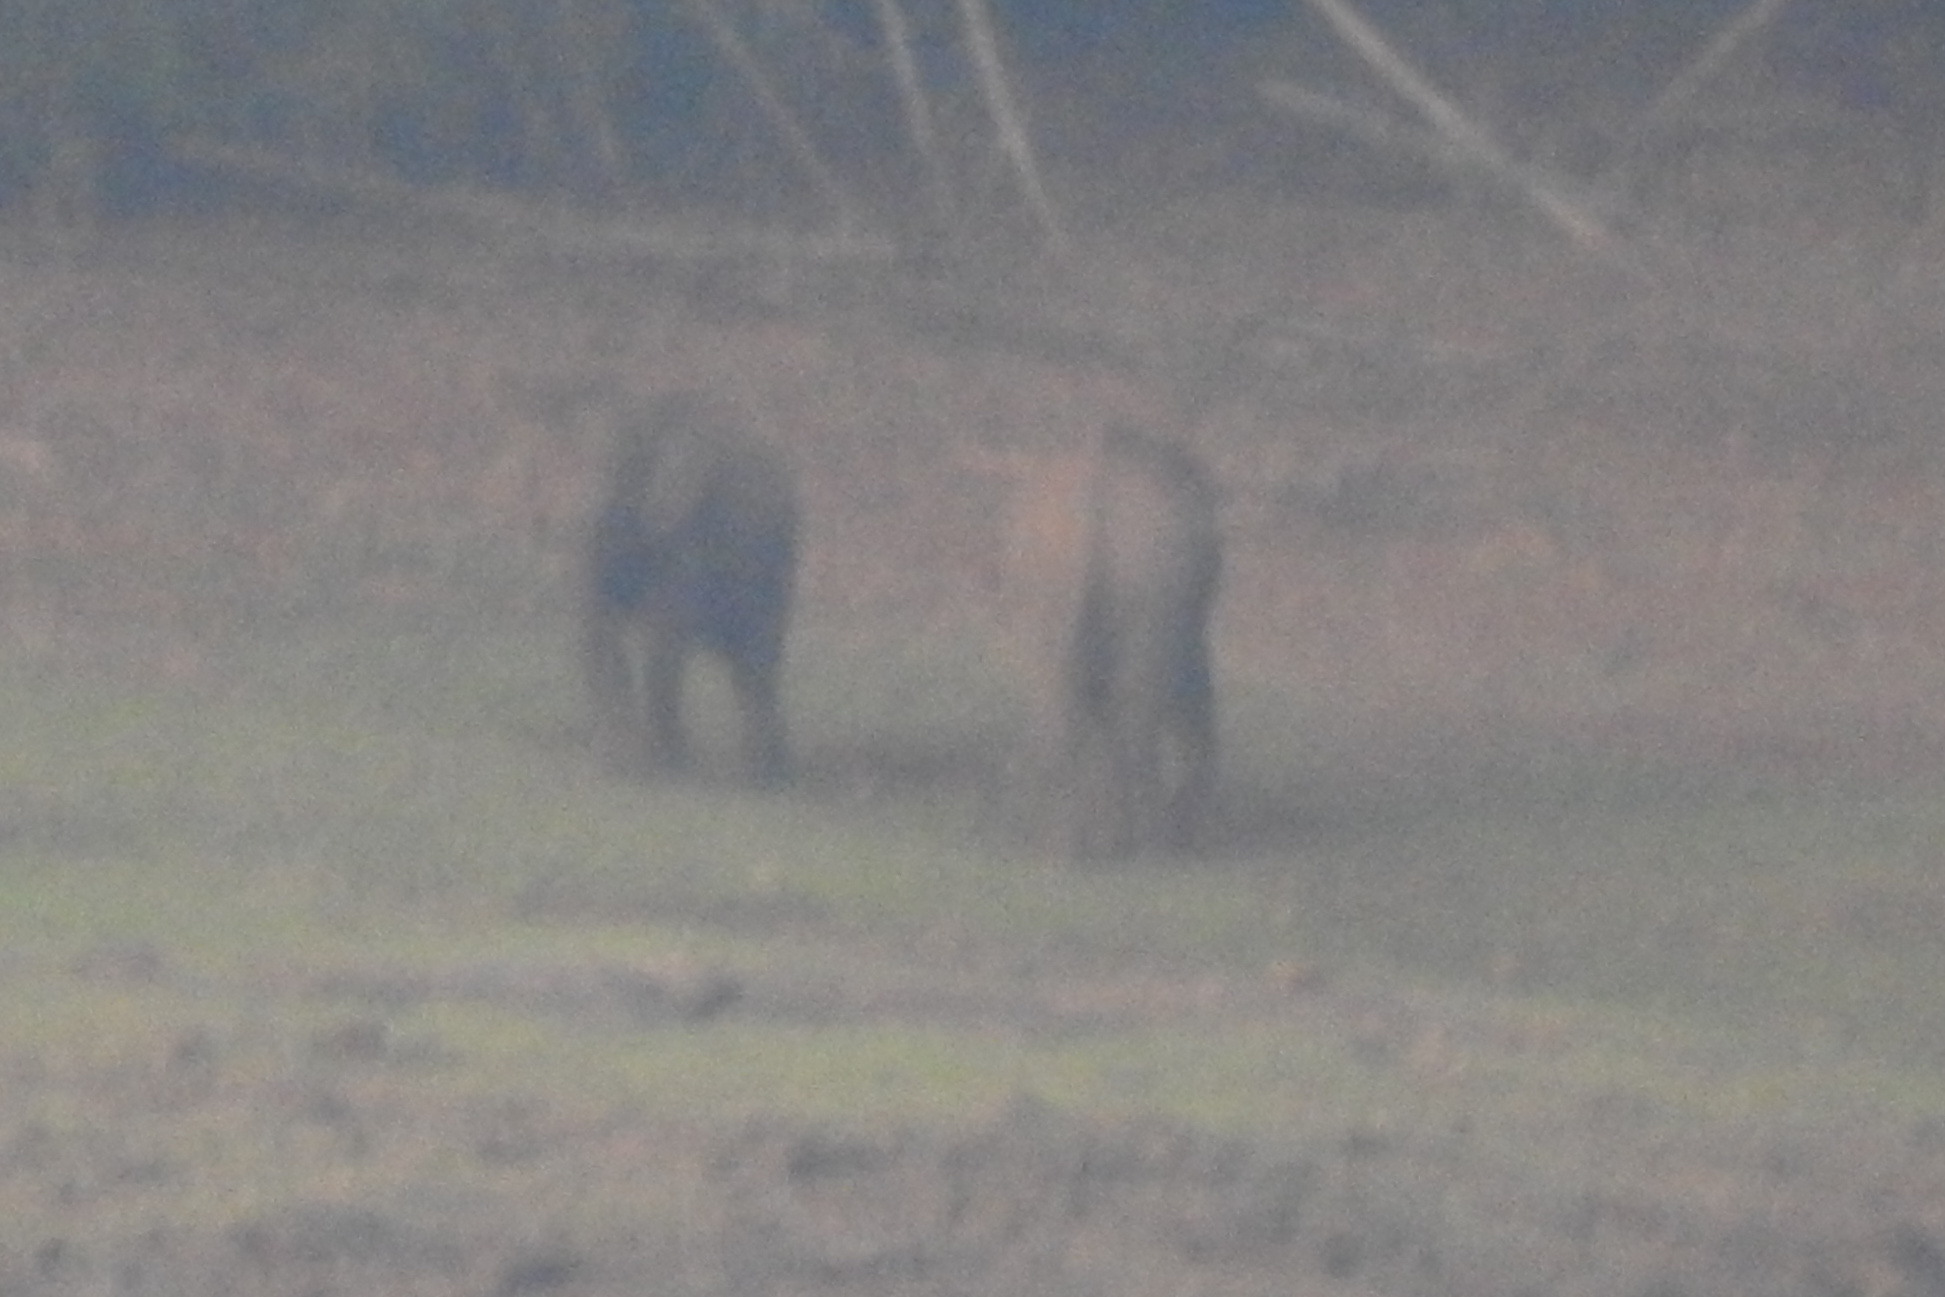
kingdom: Animalia
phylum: Chordata
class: Mammalia
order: Proboscidea
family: Elephantidae
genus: Elephas
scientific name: Elephas maximus
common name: Asian elephant
